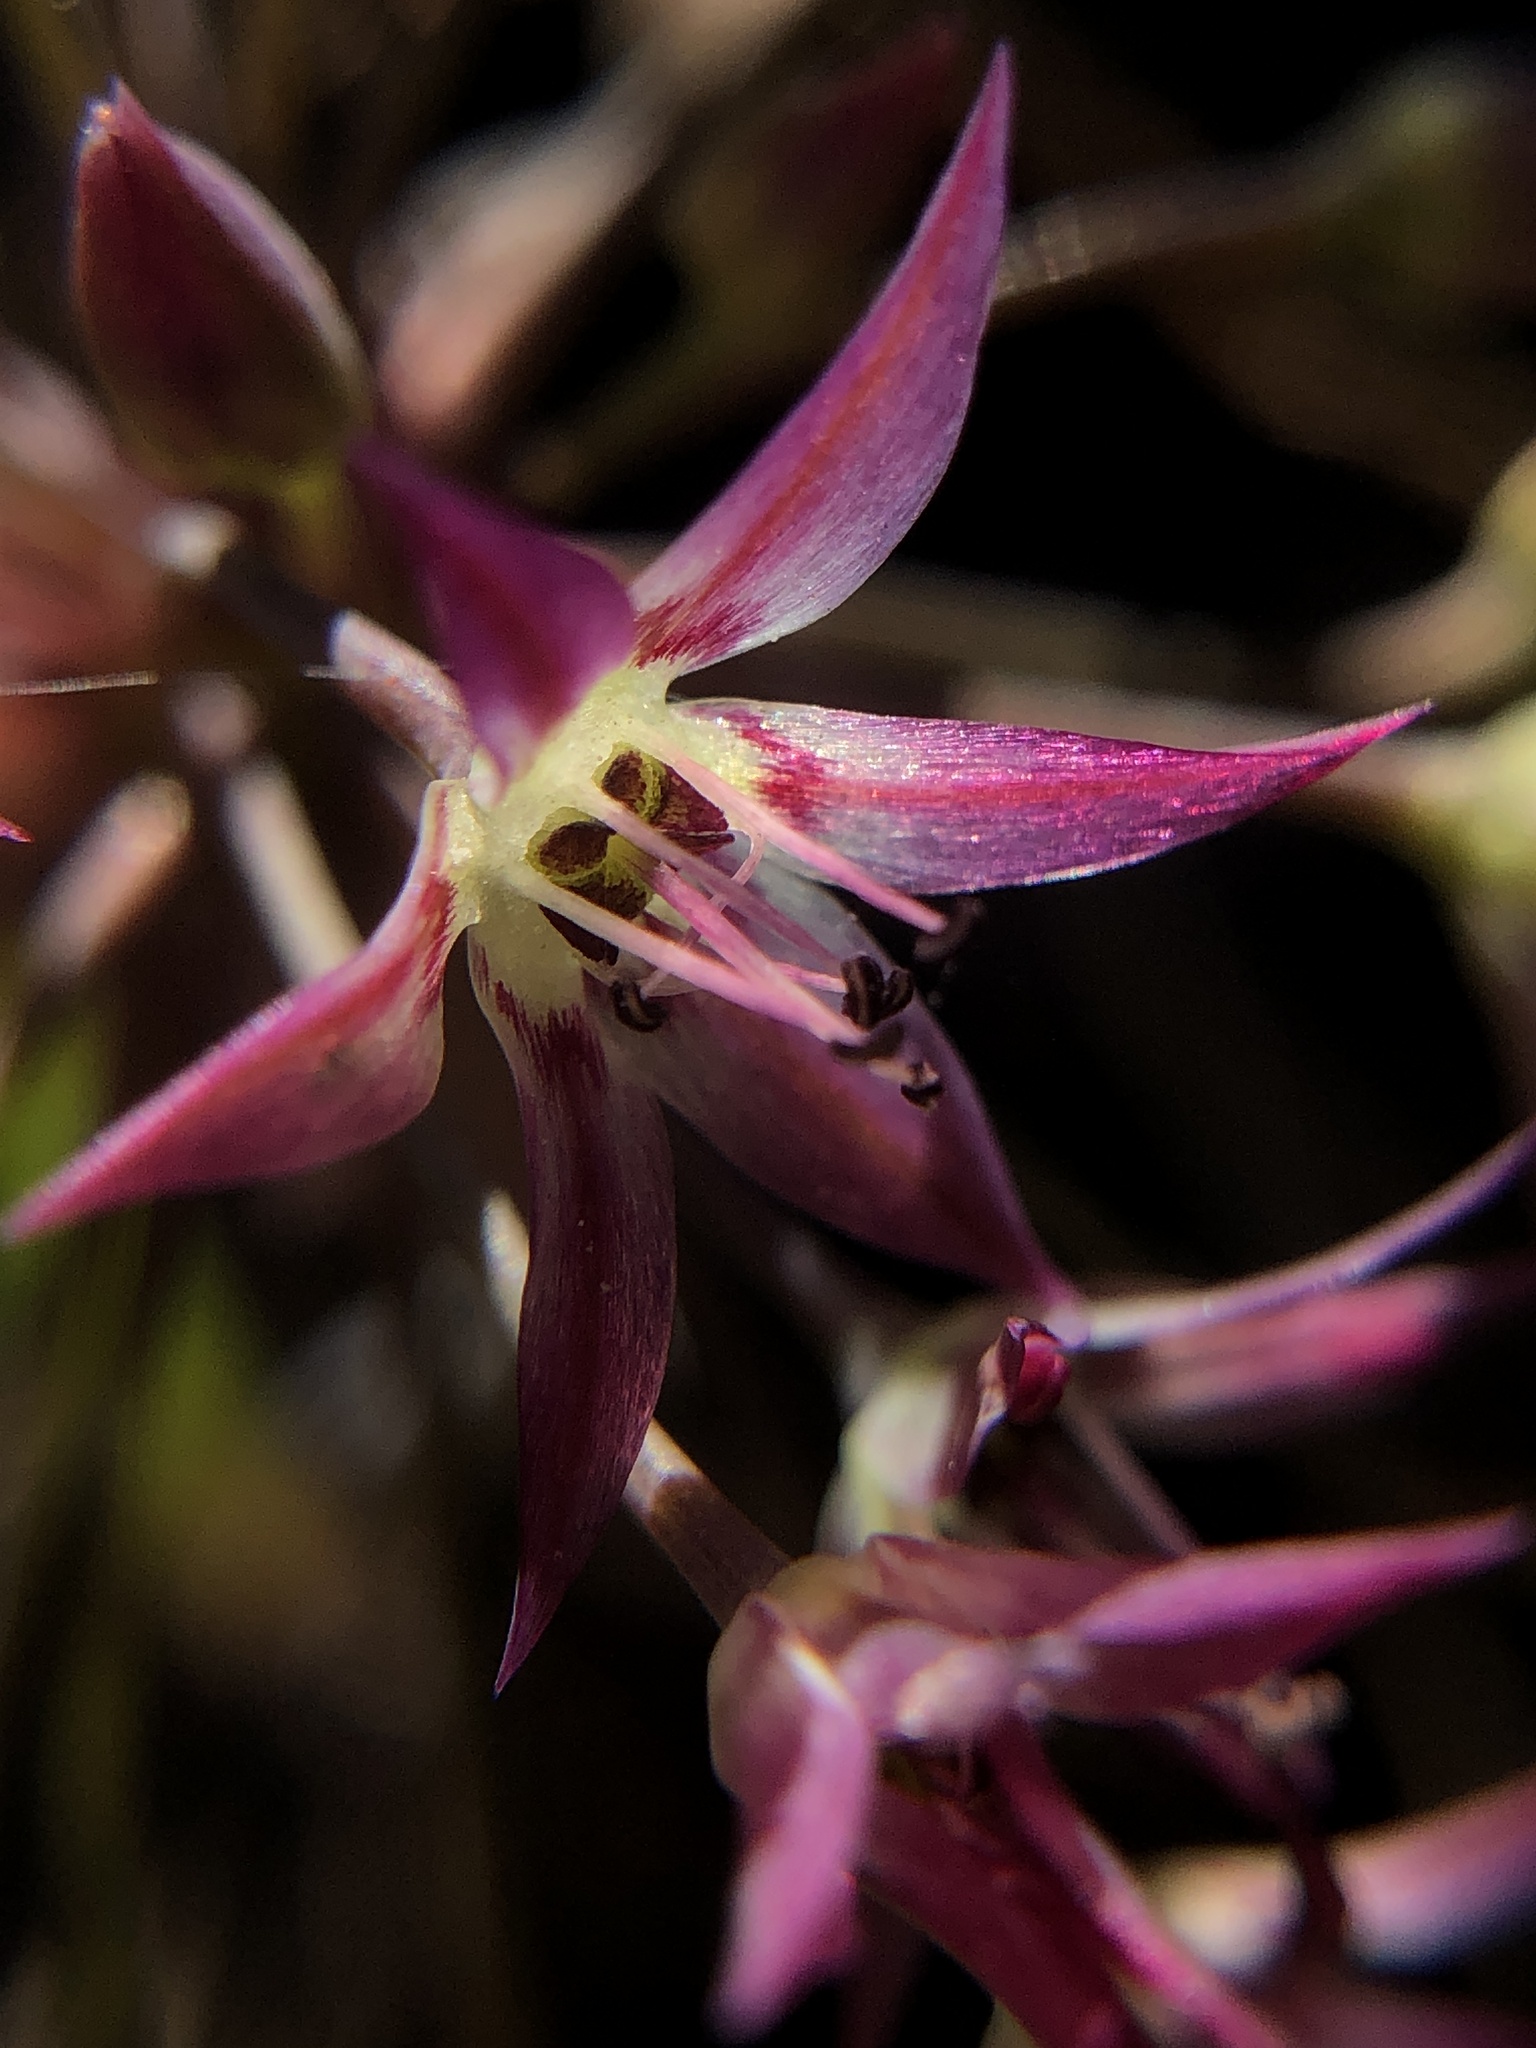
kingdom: Plantae
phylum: Tracheophyta
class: Liliopsida
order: Asparagales
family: Amaryllidaceae
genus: Allium
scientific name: Allium campanulatum
